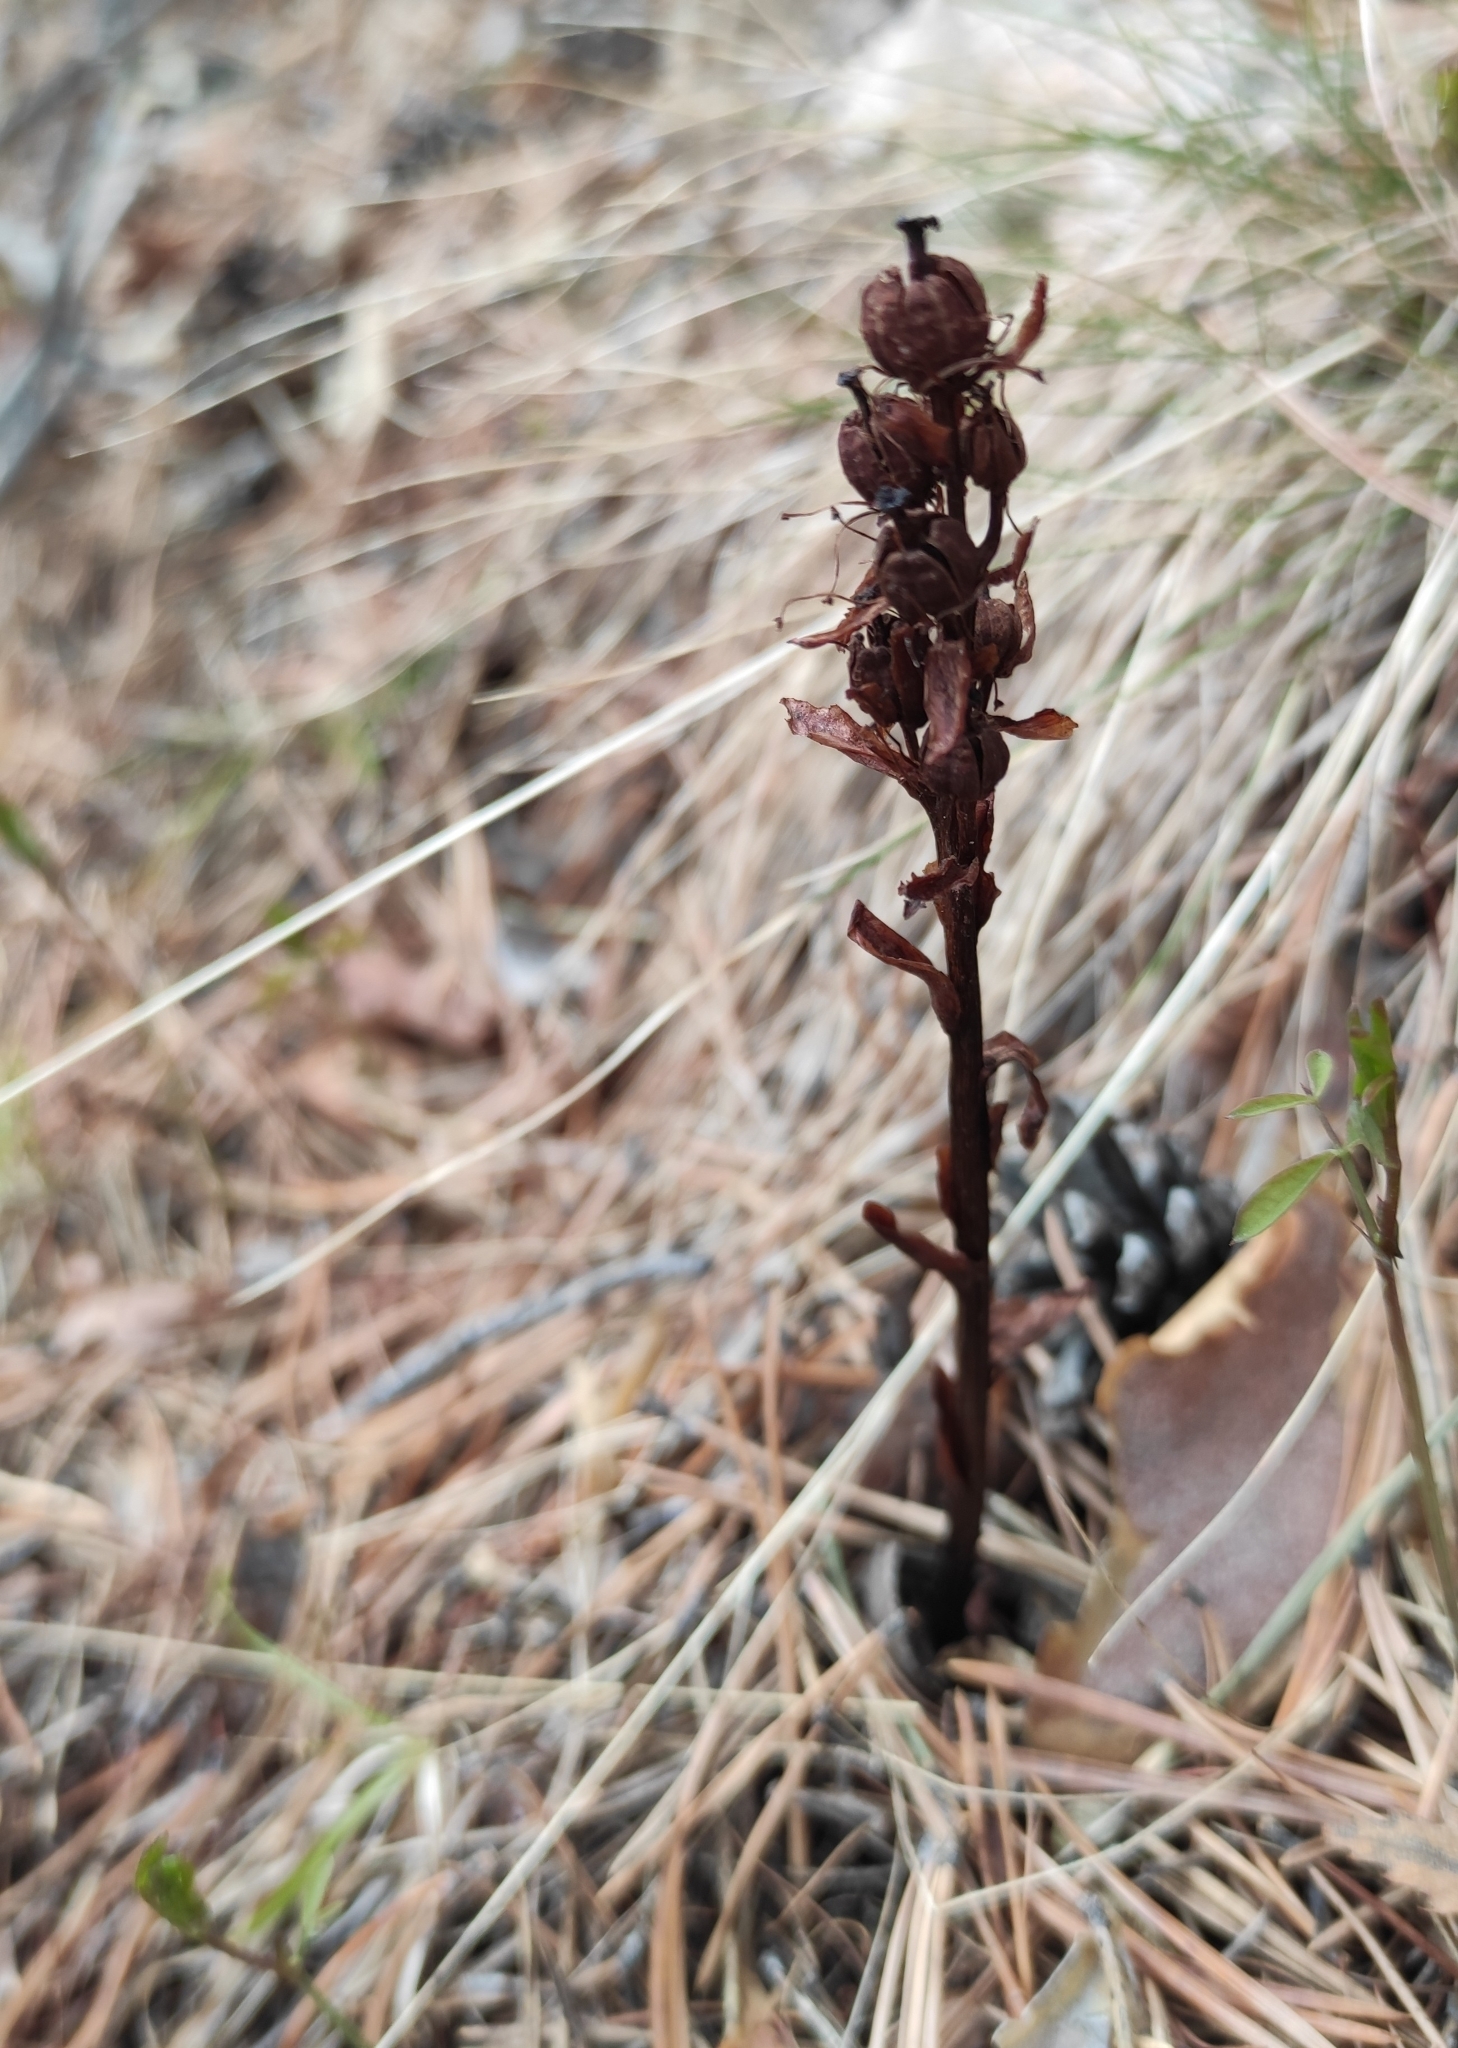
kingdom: Plantae
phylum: Tracheophyta
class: Magnoliopsida
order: Ericales
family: Ericaceae
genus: Hypopitys
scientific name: Hypopitys monotropa
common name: Yellow bird's-nest
